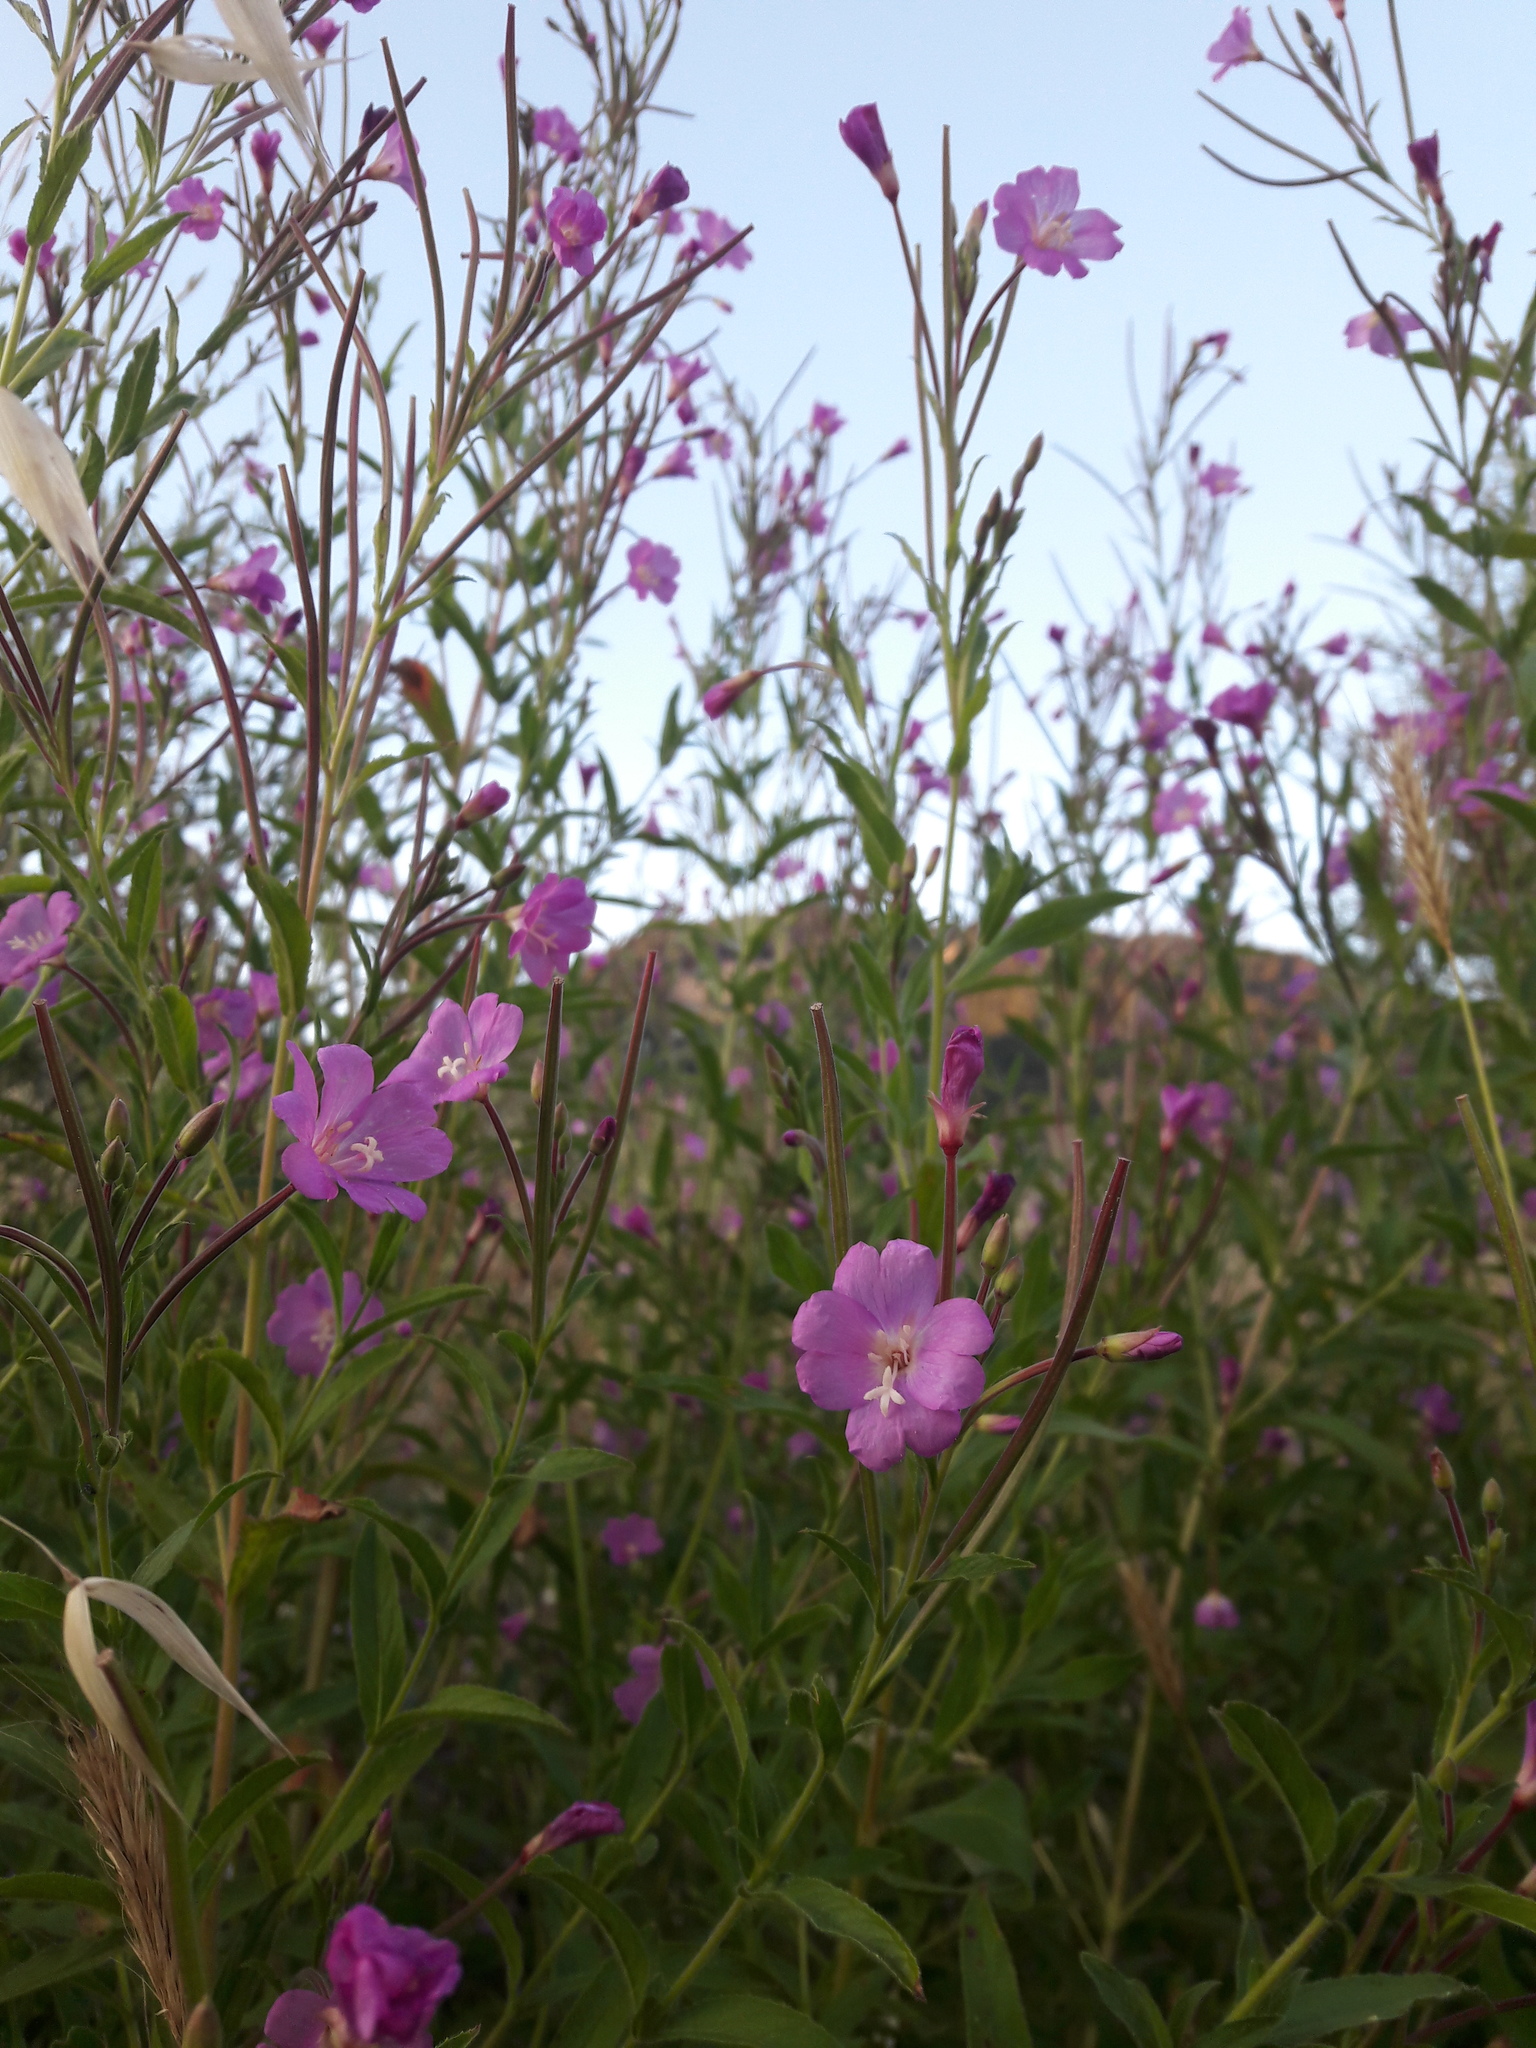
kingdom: Plantae
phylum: Tracheophyta
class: Magnoliopsida
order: Myrtales
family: Onagraceae
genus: Epilobium
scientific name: Epilobium hirsutum
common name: Great willowherb
